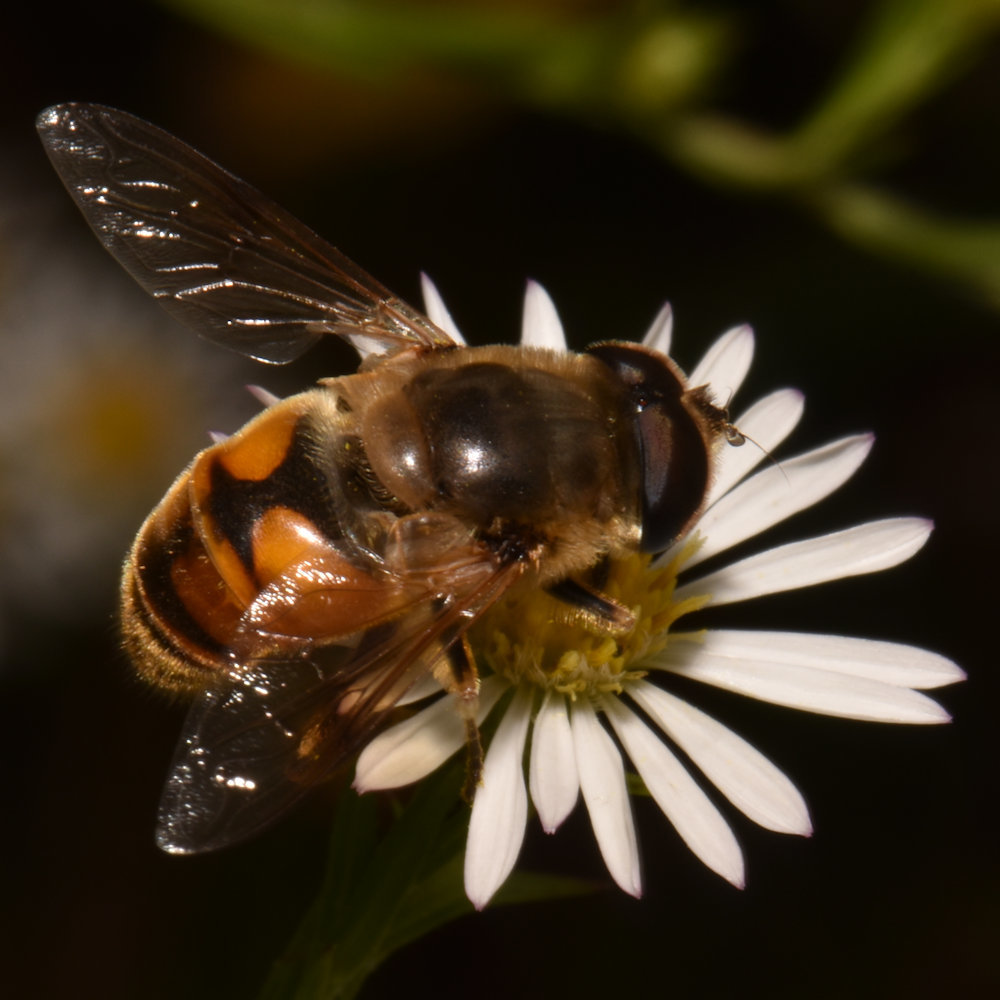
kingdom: Animalia
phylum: Arthropoda
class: Insecta
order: Diptera
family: Syrphidae
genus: Eristalis
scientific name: Eristalis tenax
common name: Drone fly
